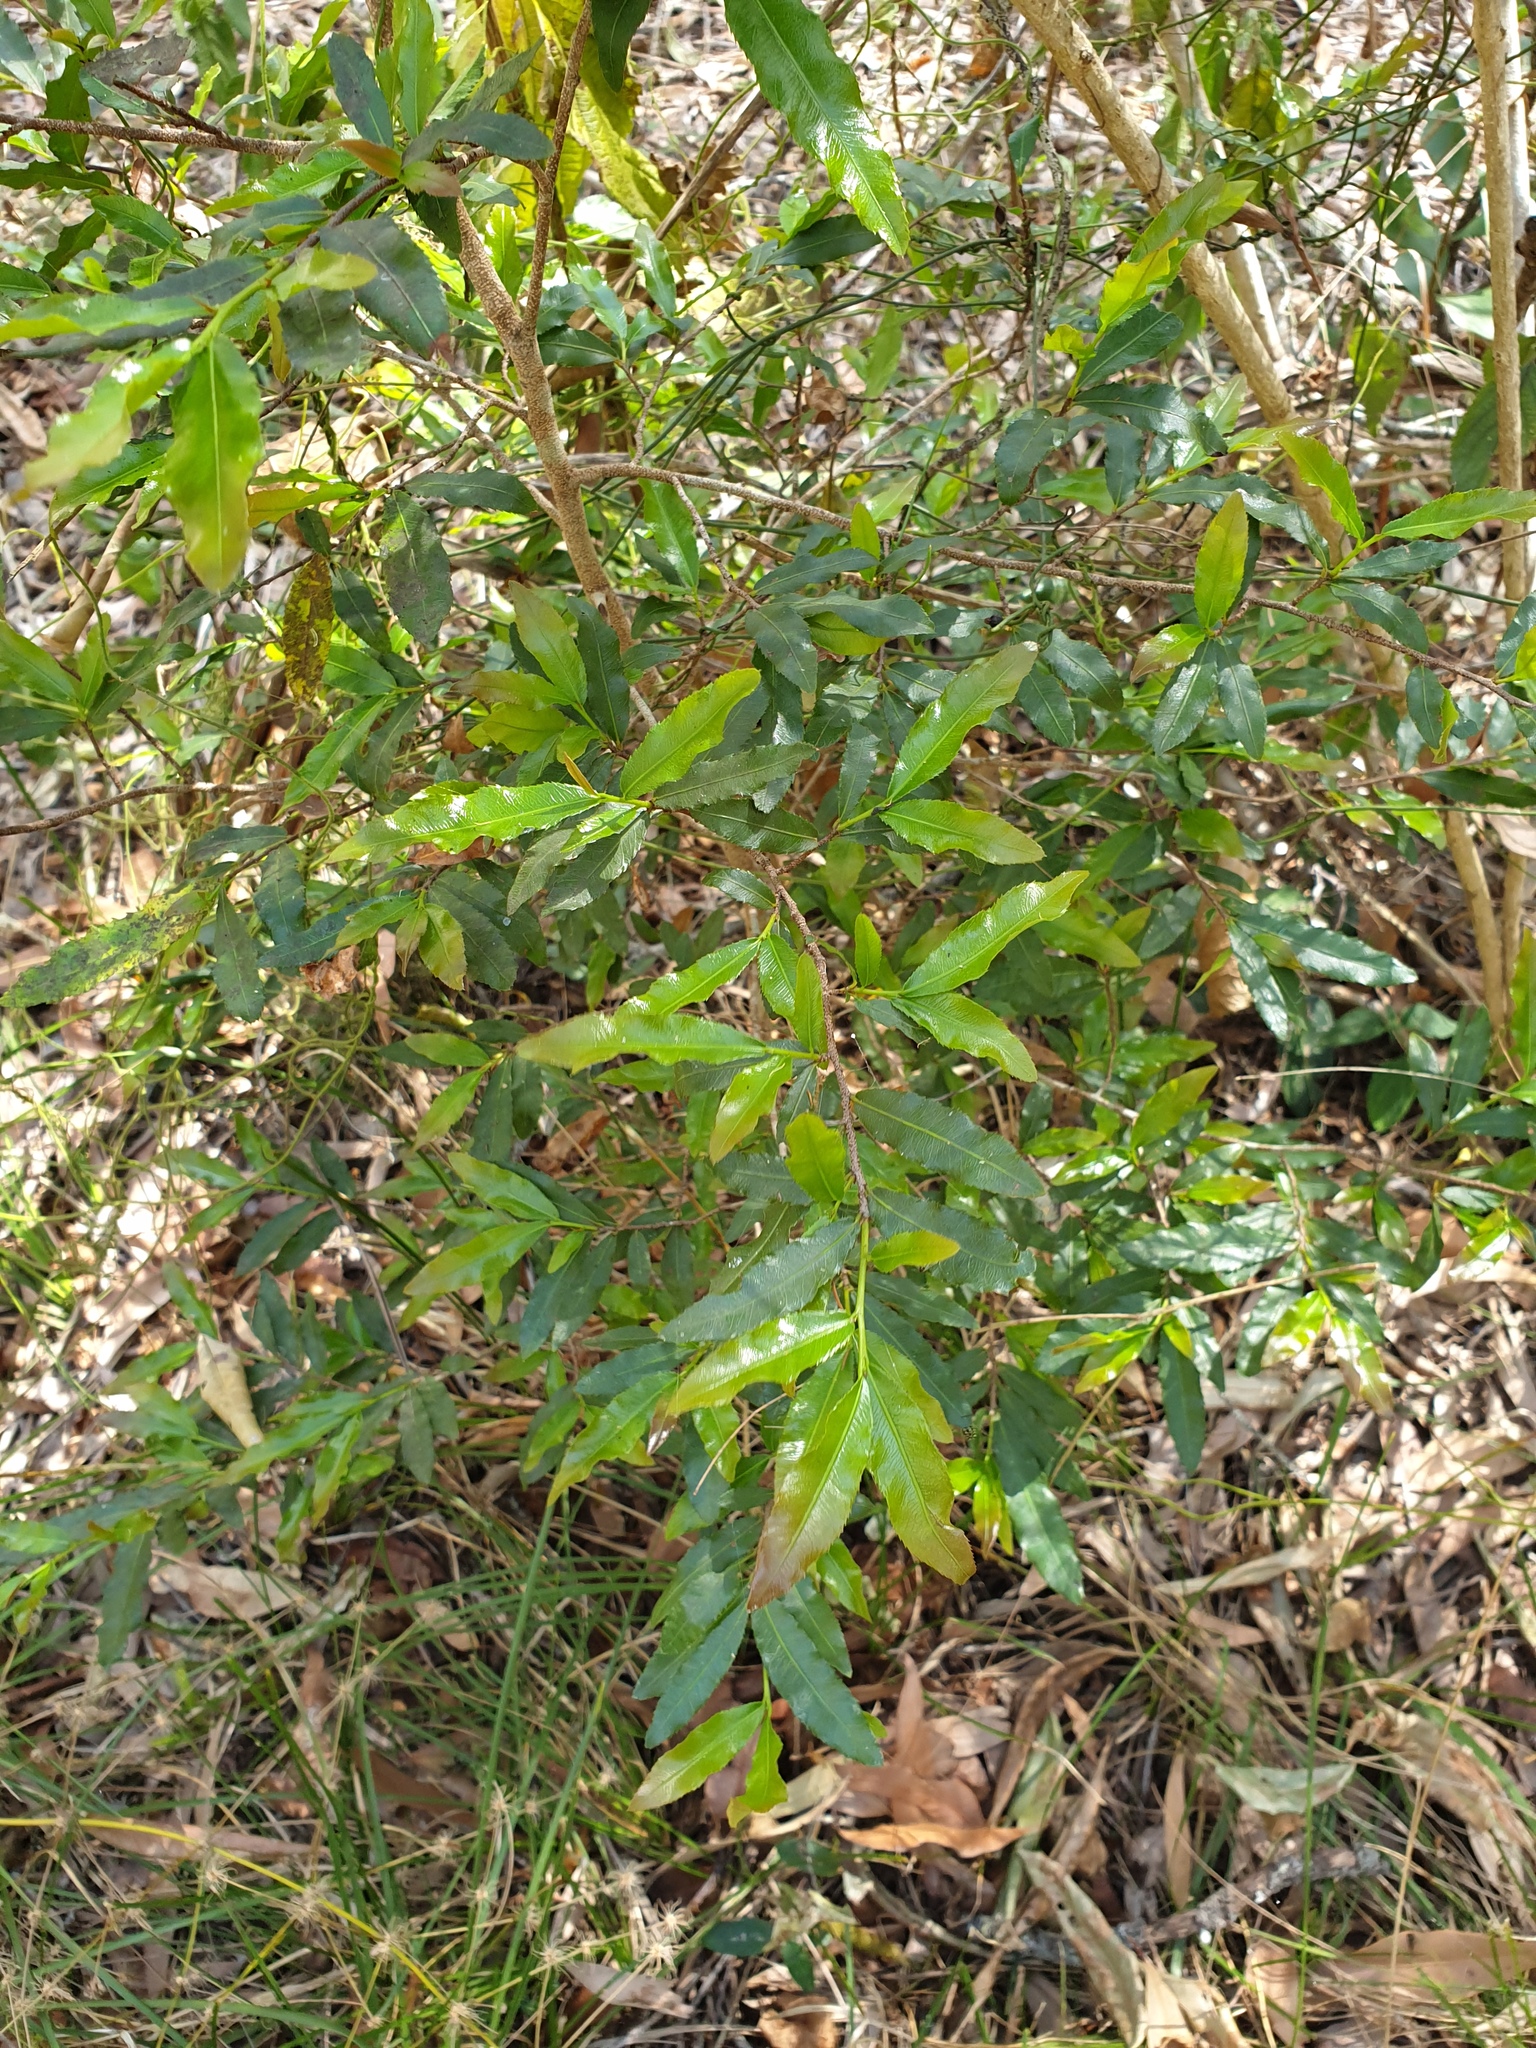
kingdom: Plantae
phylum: Tracheophyta
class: Magnoliopsida
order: Malpighiales
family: Ochnaceae
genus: Ochna
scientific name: Ochna serrulata
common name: Mickey mouse plant
